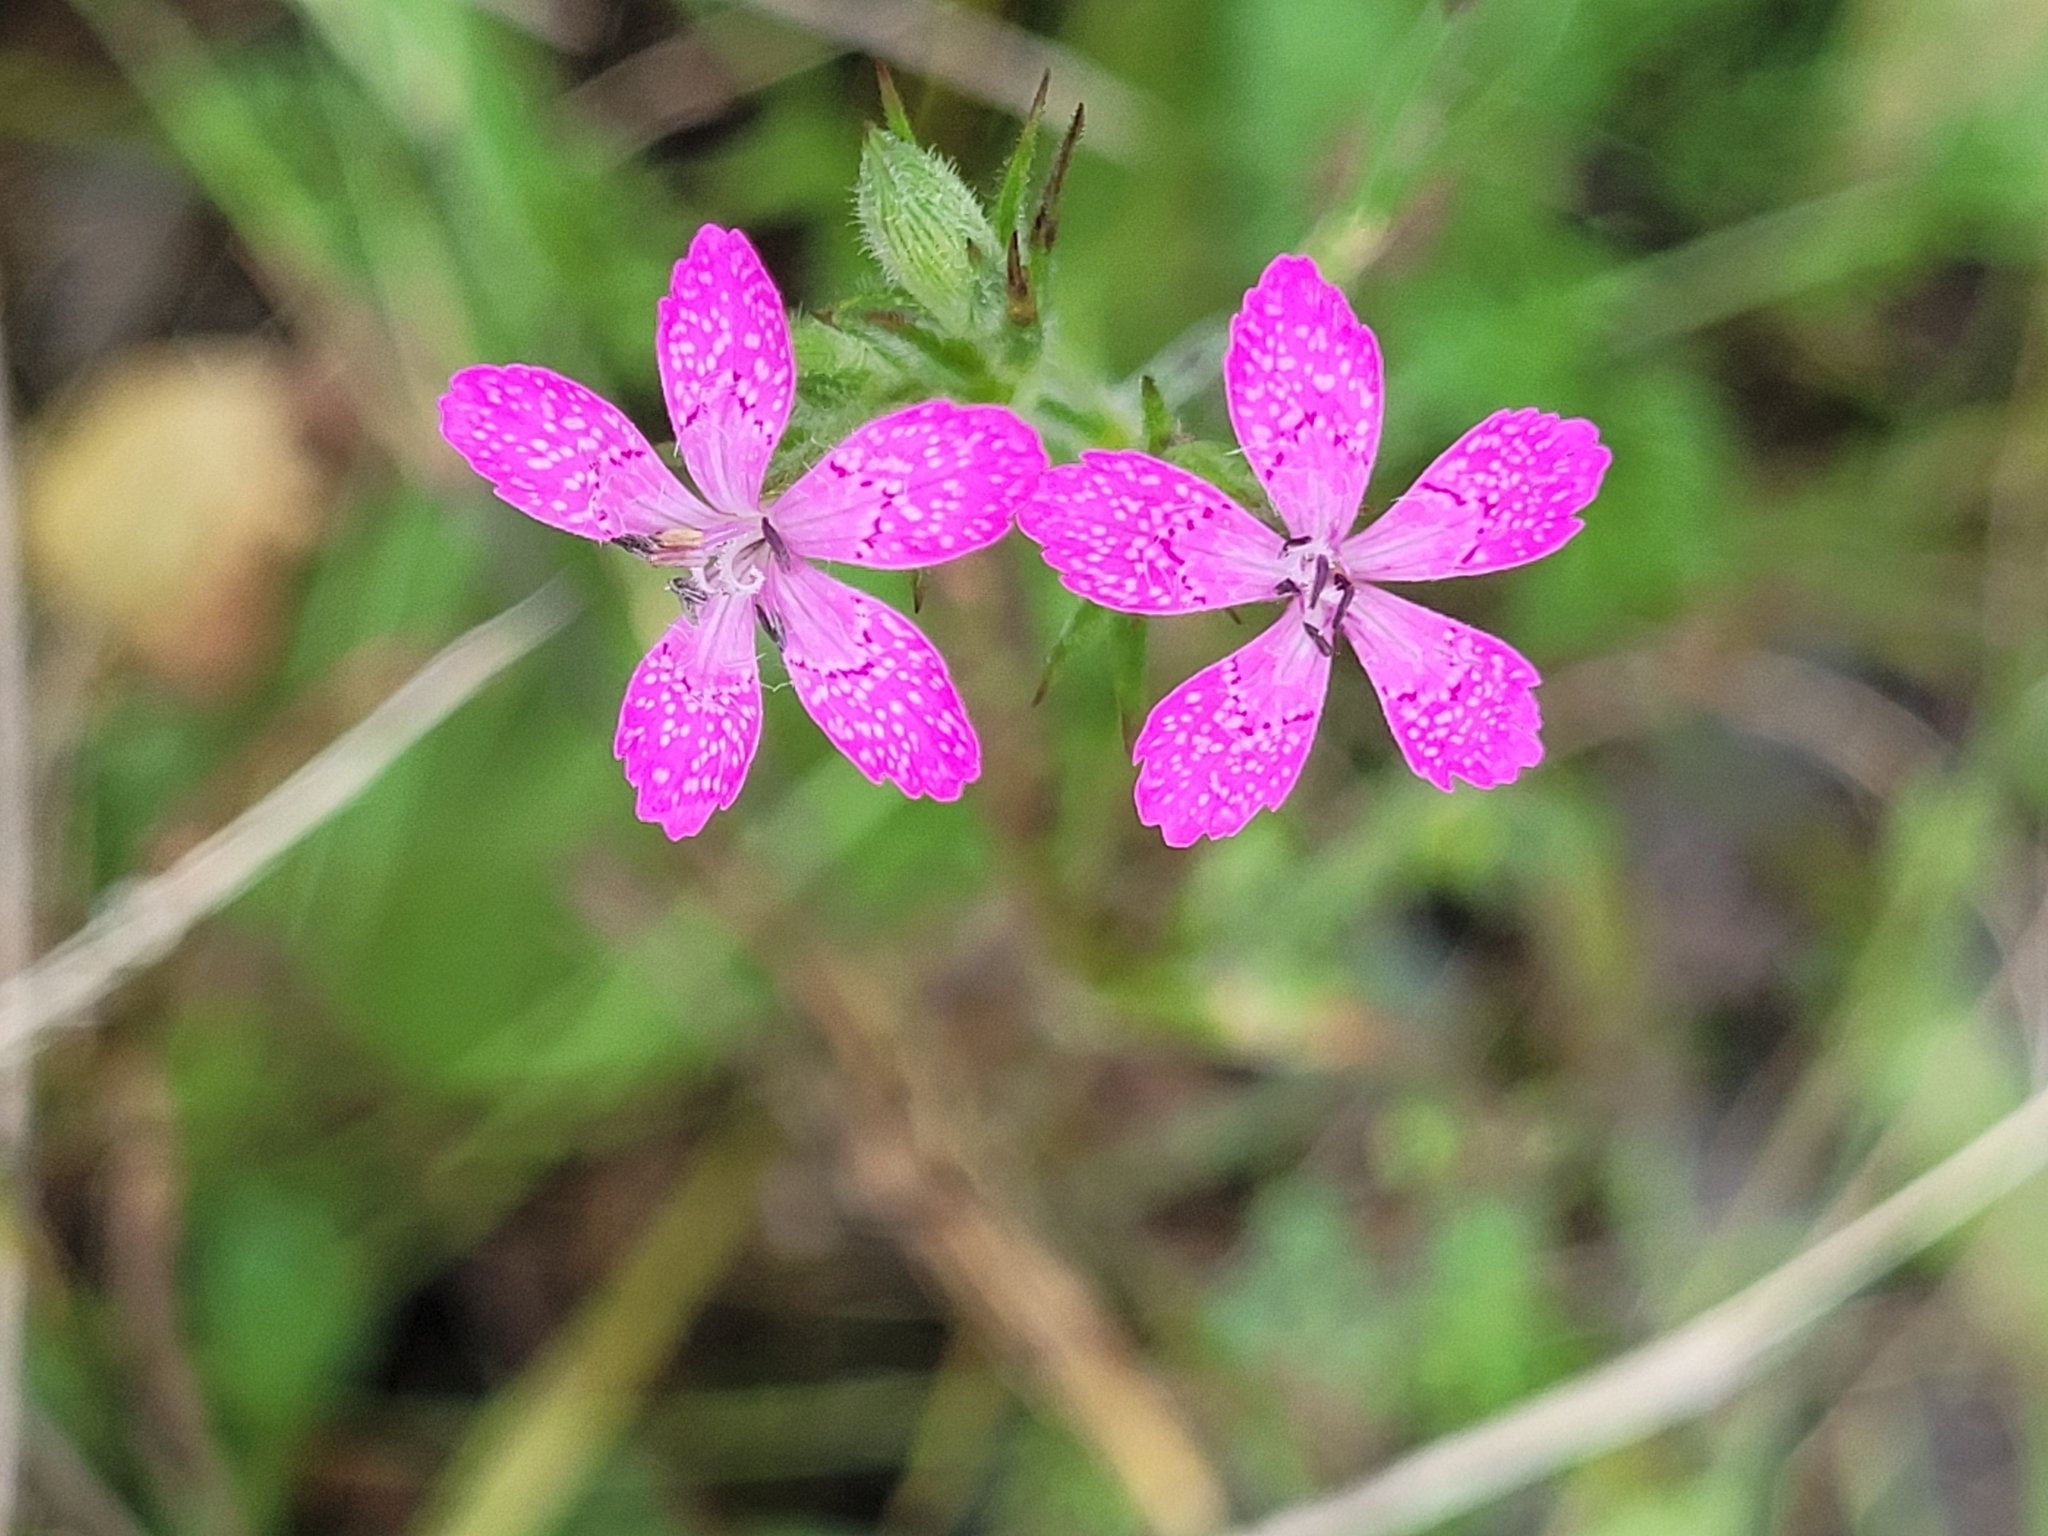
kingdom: Plantae
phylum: Tracheophyta
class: Magnoliopsida
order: Caryophyllales
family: Caryophyllaceae
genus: Dianthus
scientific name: Dianthus deltoides
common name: Maiden pink
